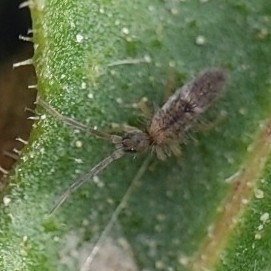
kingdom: Animalia
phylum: Arthropoda
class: Collembola
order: Entomobryomorpha
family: Entomobryidae
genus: Entomobrya
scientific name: Entomobrya unostrigata
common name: Springtail
